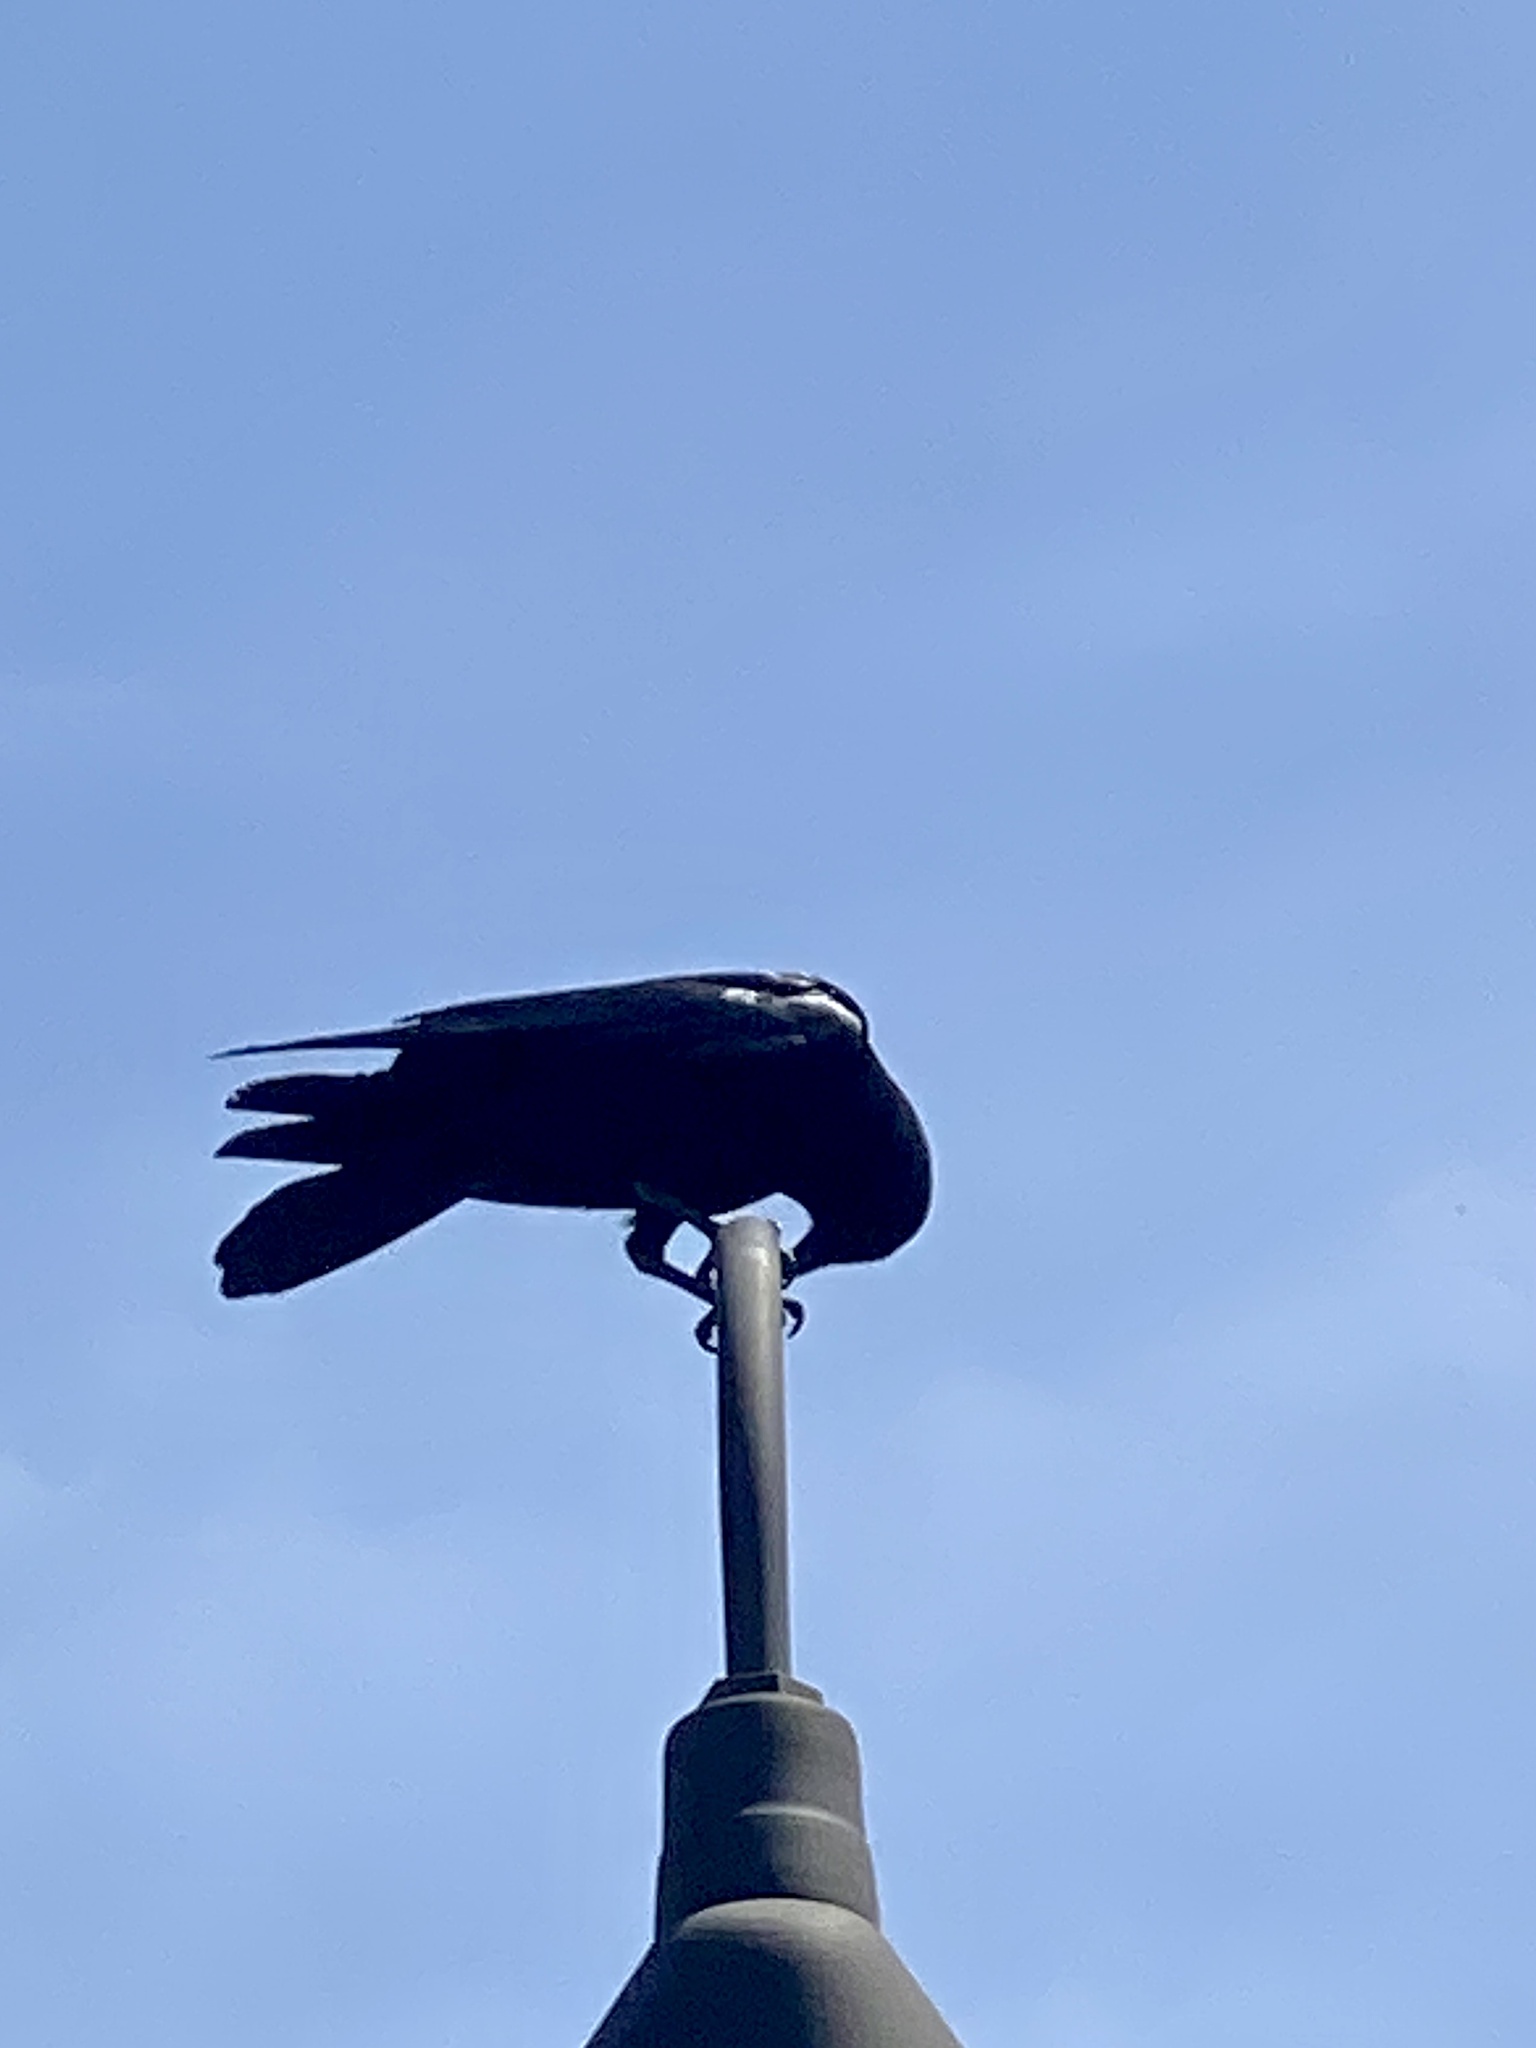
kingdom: Animalia
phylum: Chordata
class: Aves
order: Passeriformes
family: Corvidae
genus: Corvus
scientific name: Corvus ossifragus
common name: Fish crow
